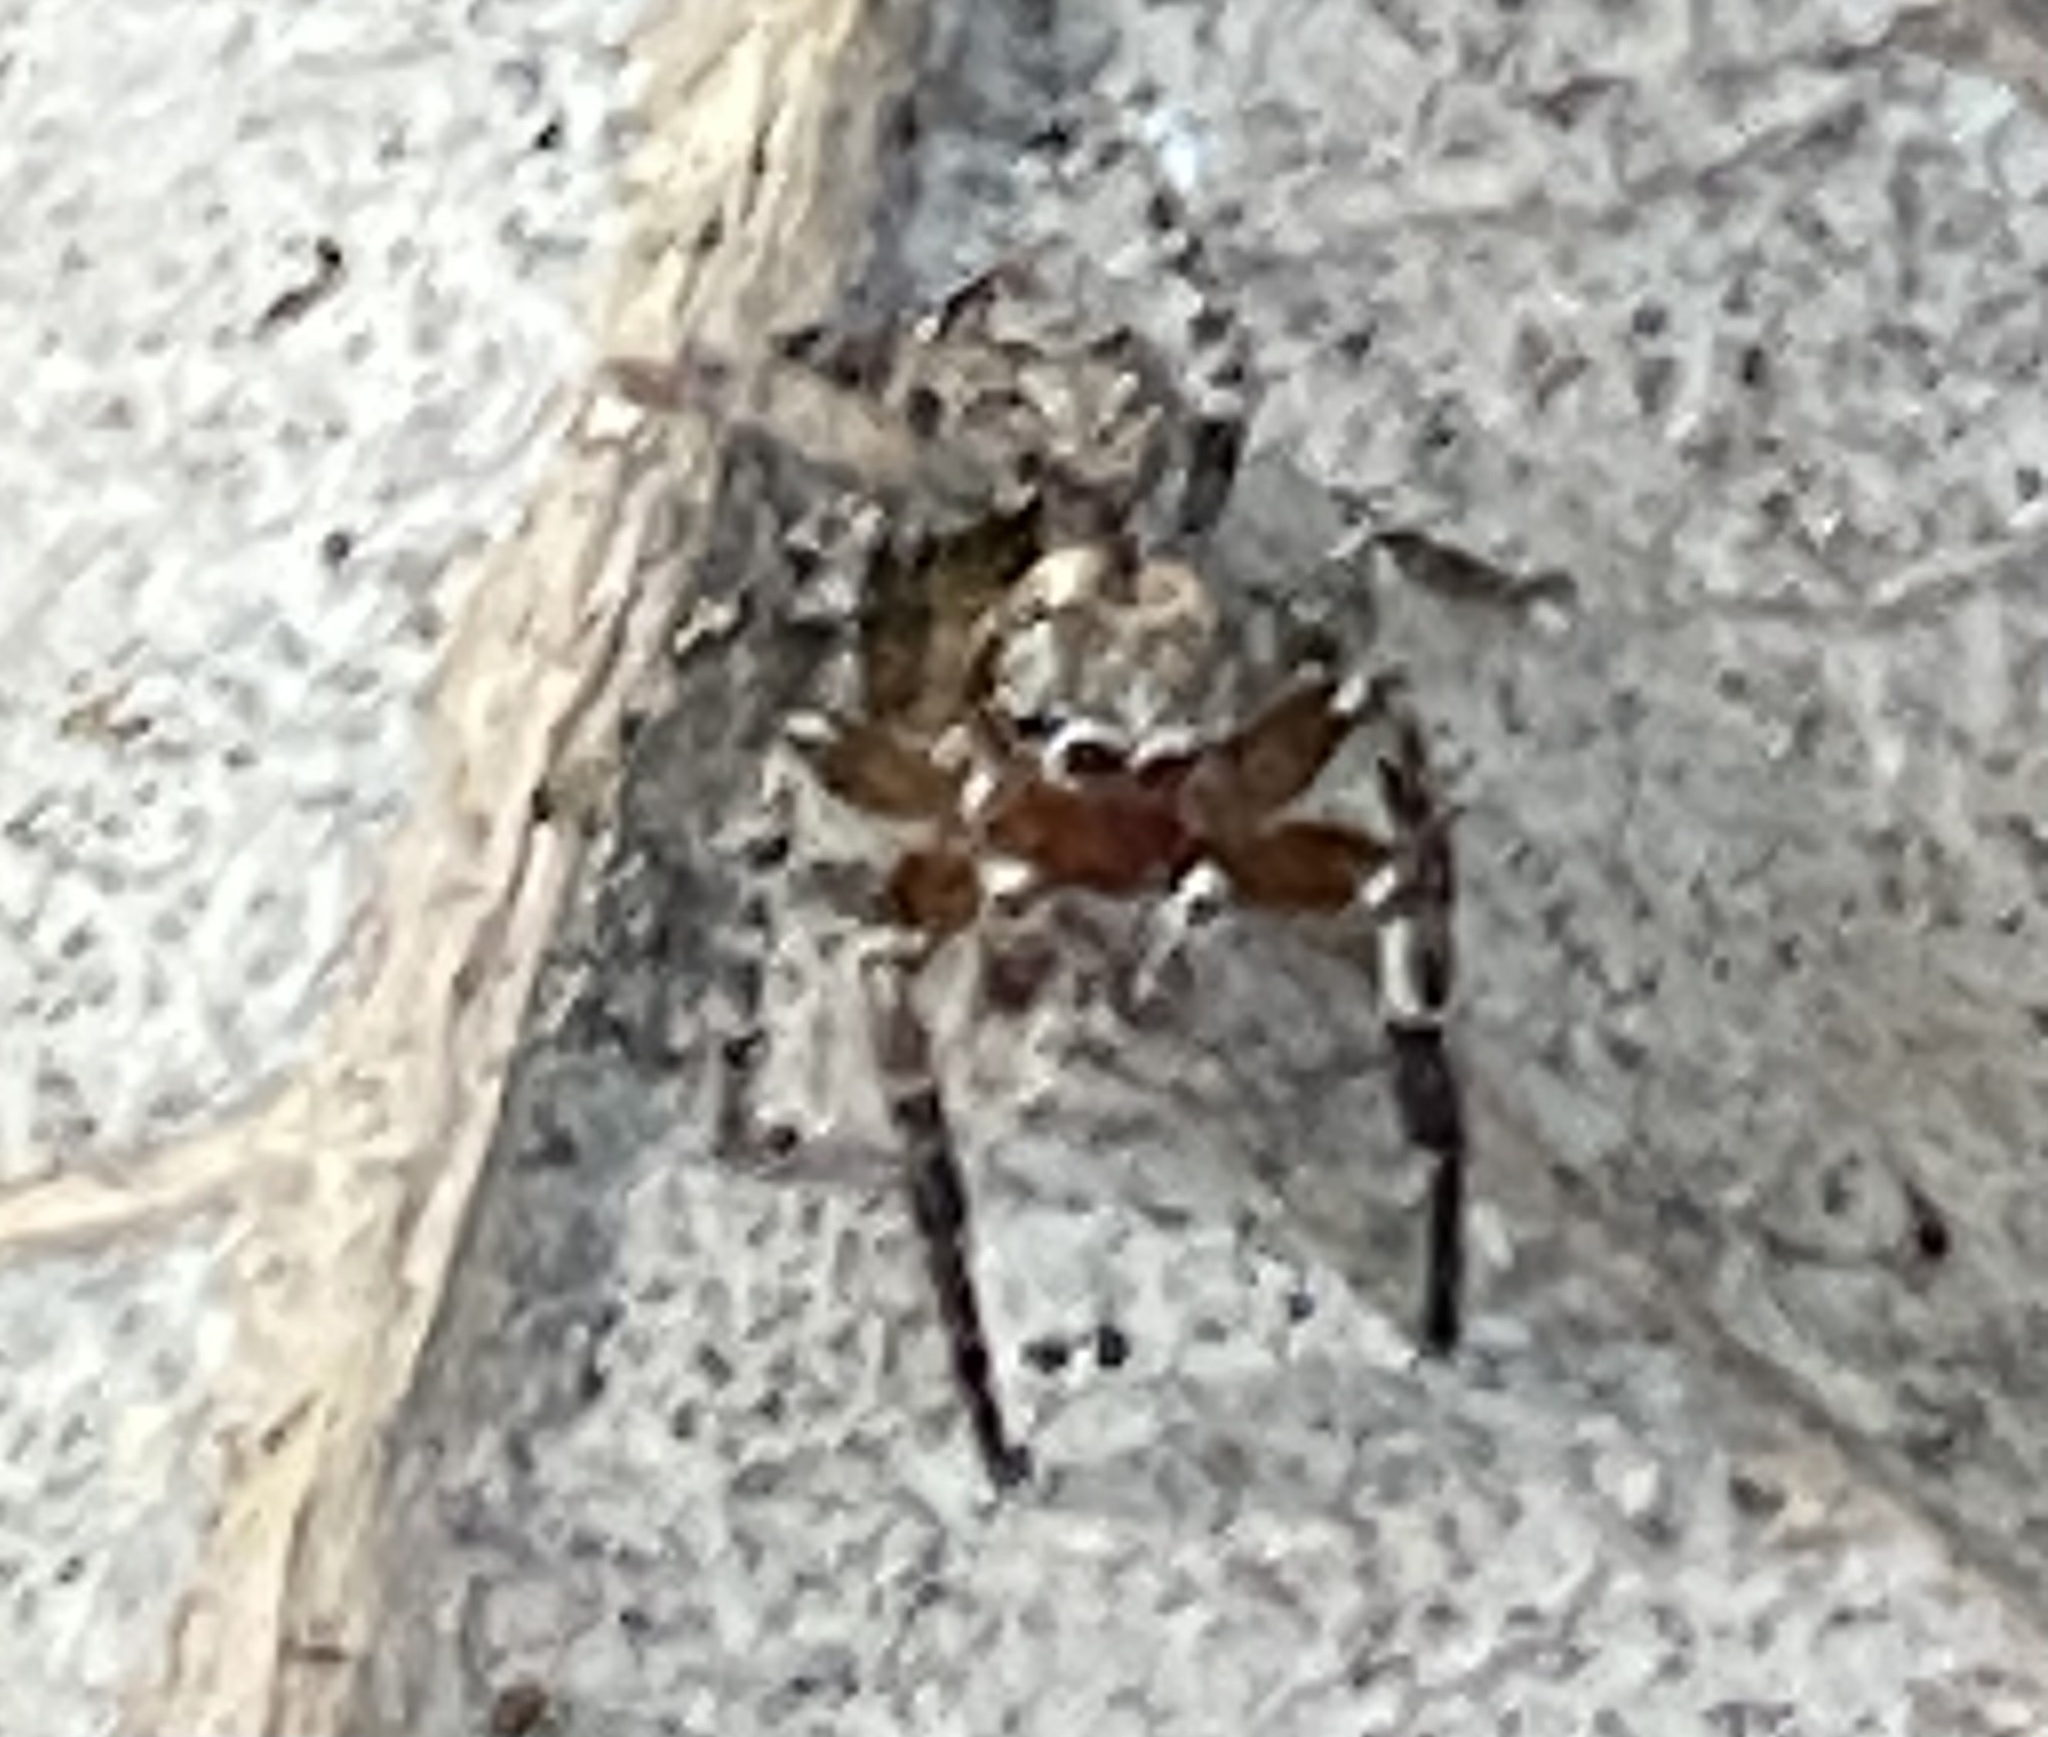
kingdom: Animalia
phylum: Arthropoda
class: Arachnida
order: Araneae
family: Salticidae
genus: Mexigonus
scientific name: Mexigonus morosus
